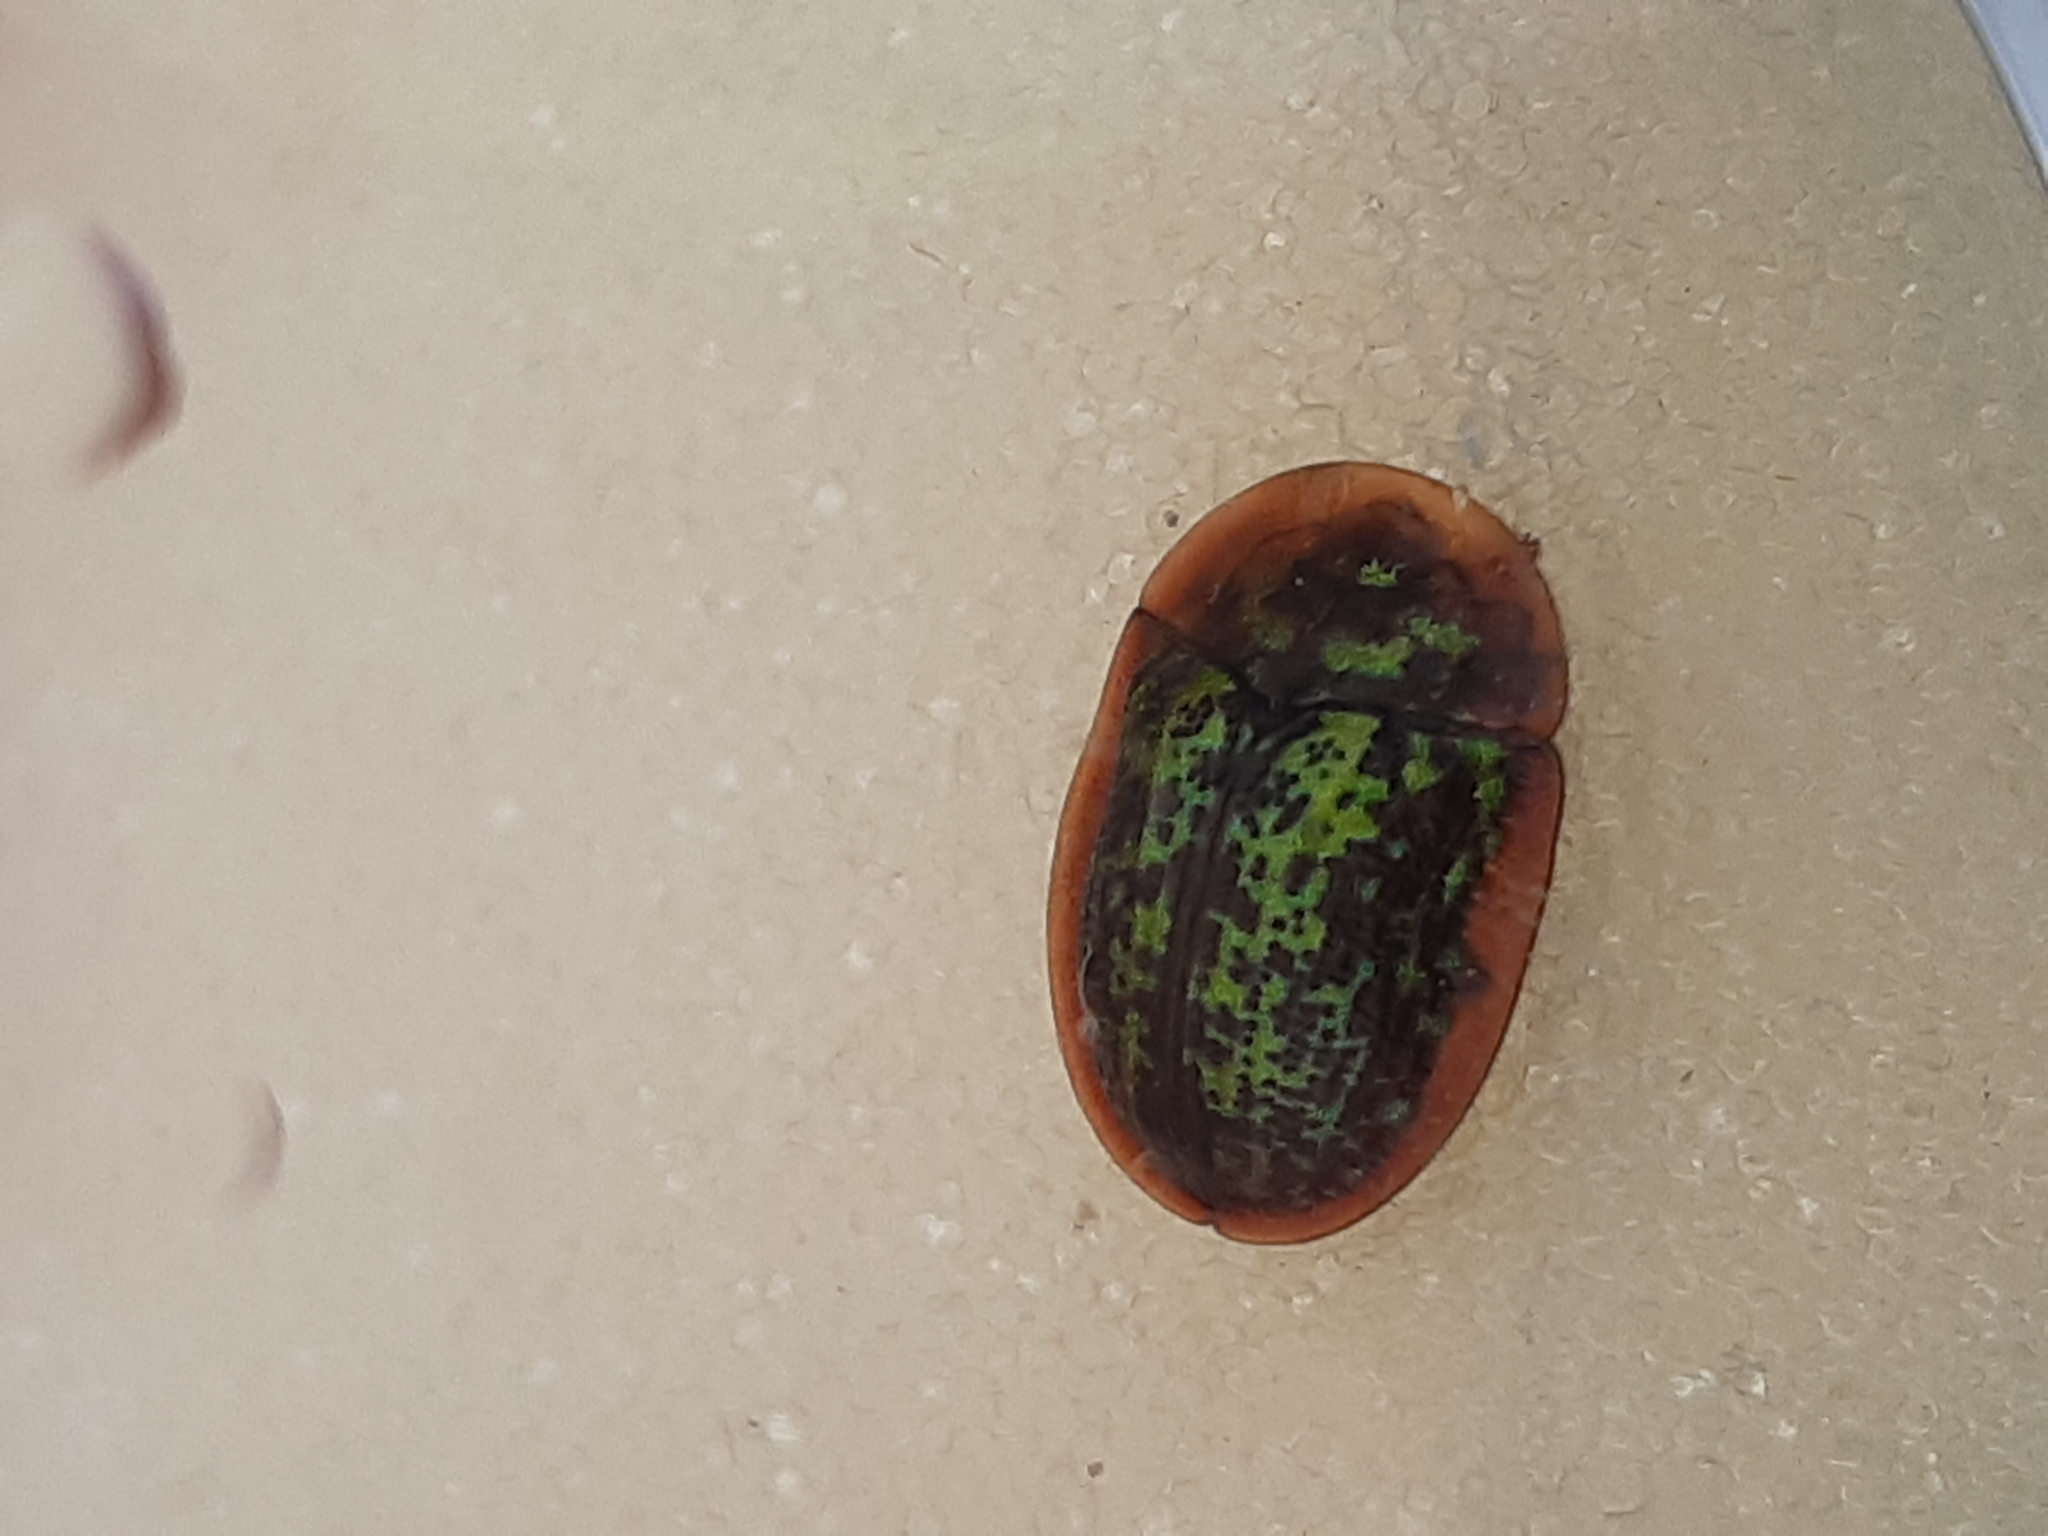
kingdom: Animalia
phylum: Arthropoda
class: Insecta
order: Coleoptera
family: Chrysomelidae
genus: Cassida
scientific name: Cassida canaliculata
